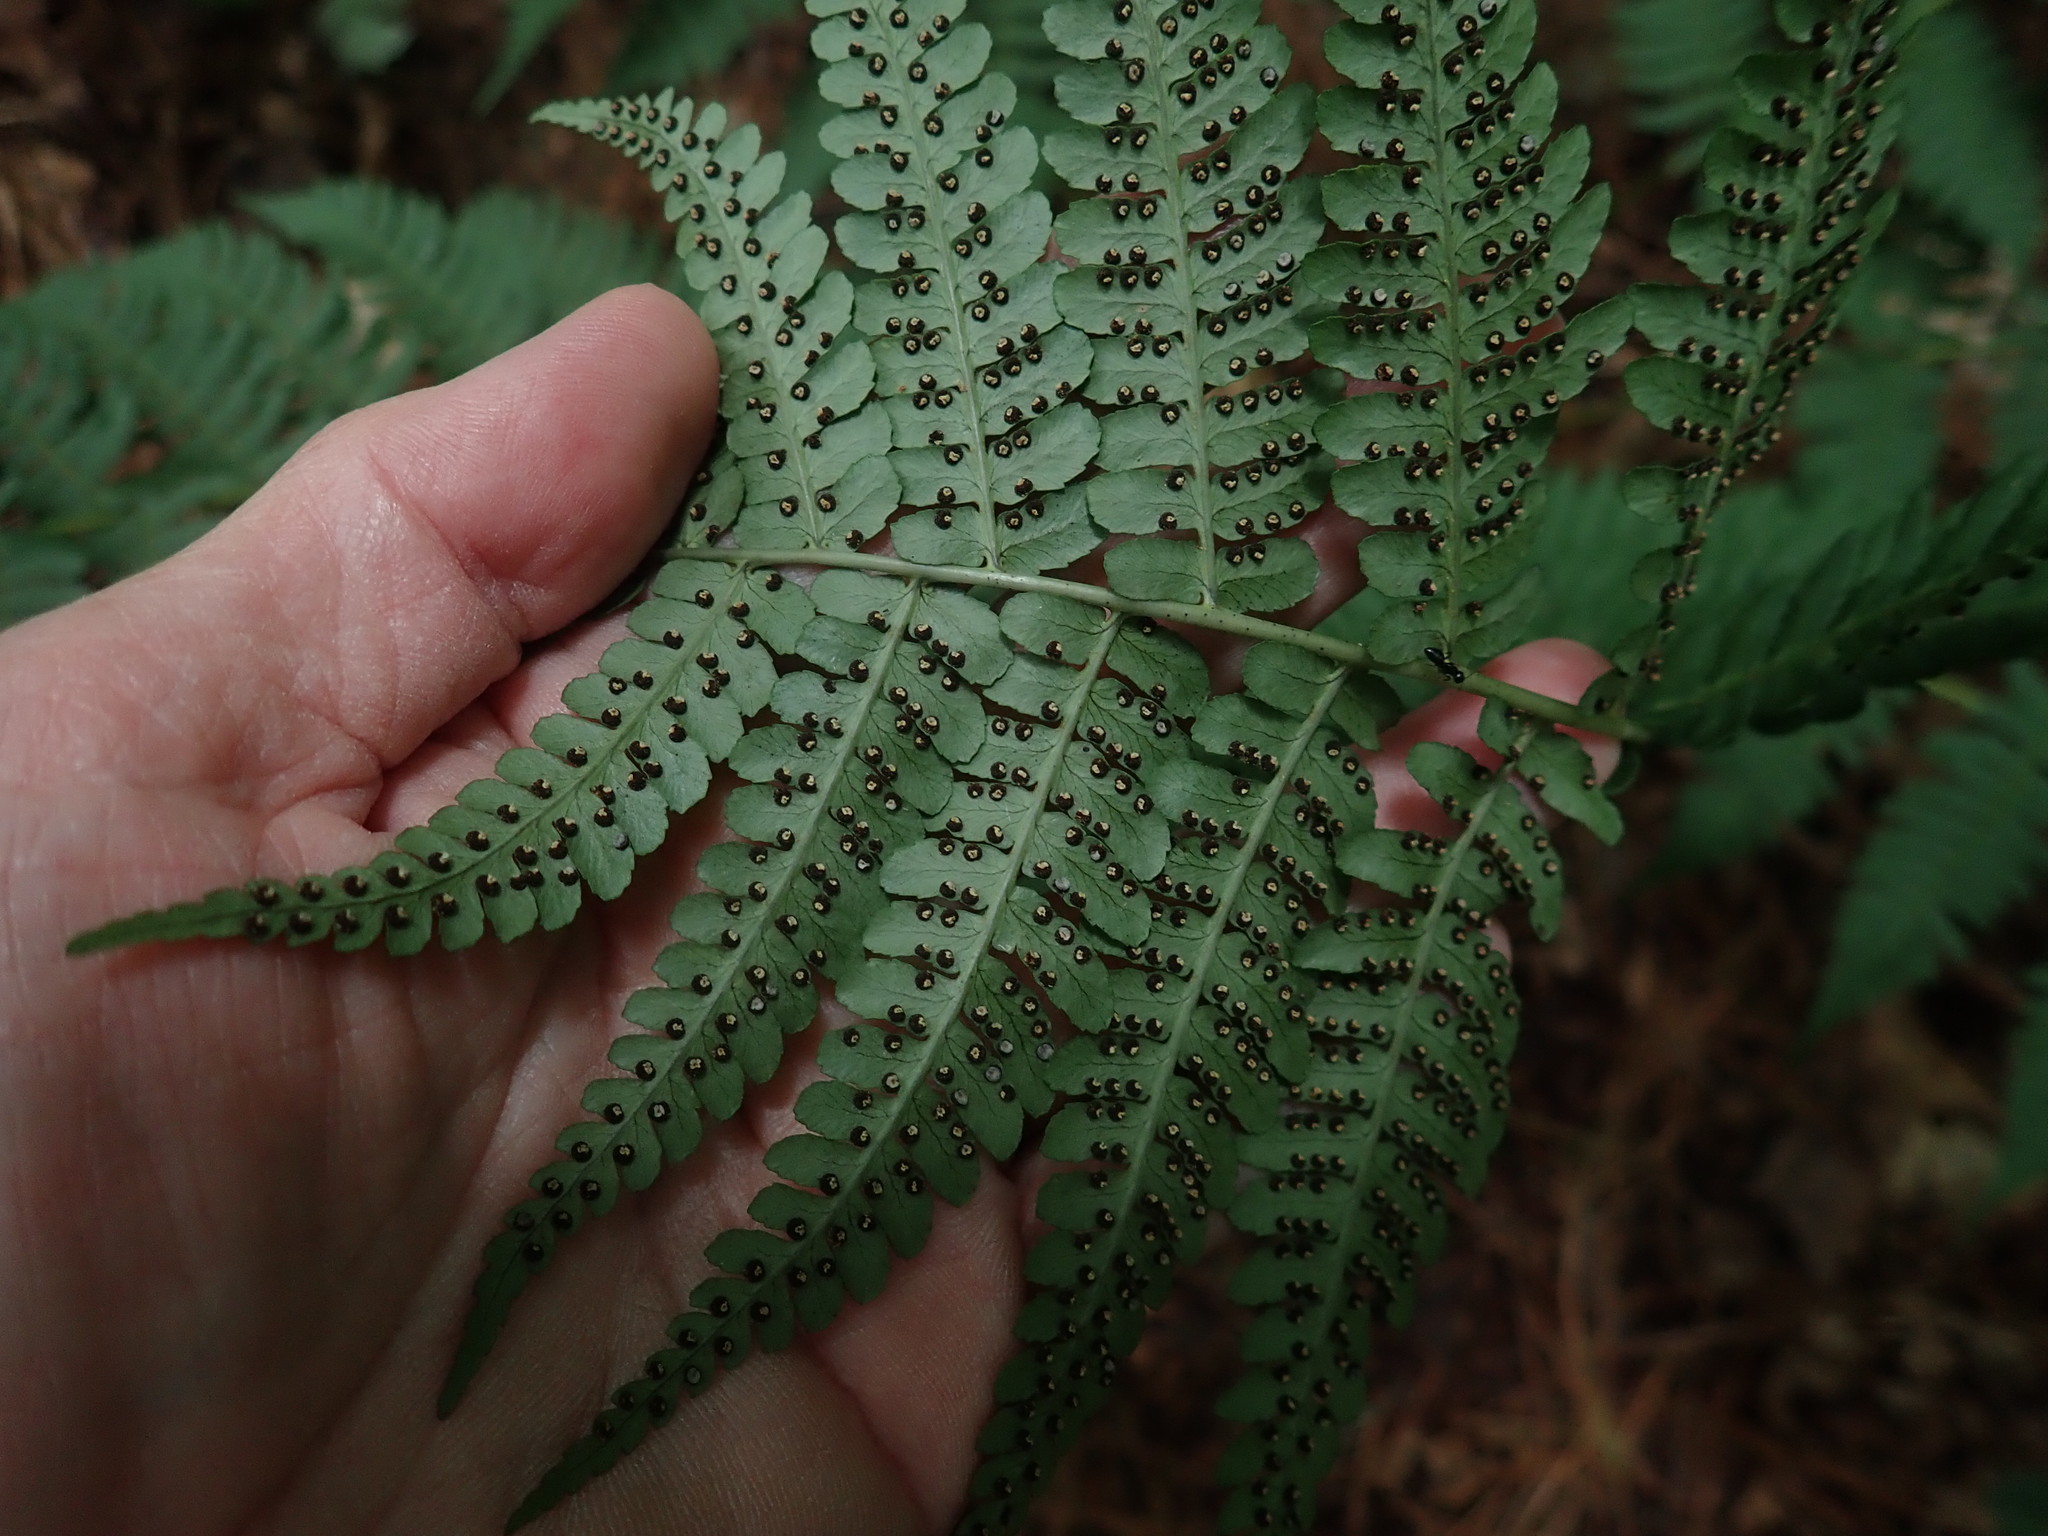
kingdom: Plantae
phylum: Tracheophyta
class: Polypodiopsida
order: Polypodiales
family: Dryopteridaceae
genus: Dryopteris
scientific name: Dryopteris marginalis
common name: Marginal wood fern
